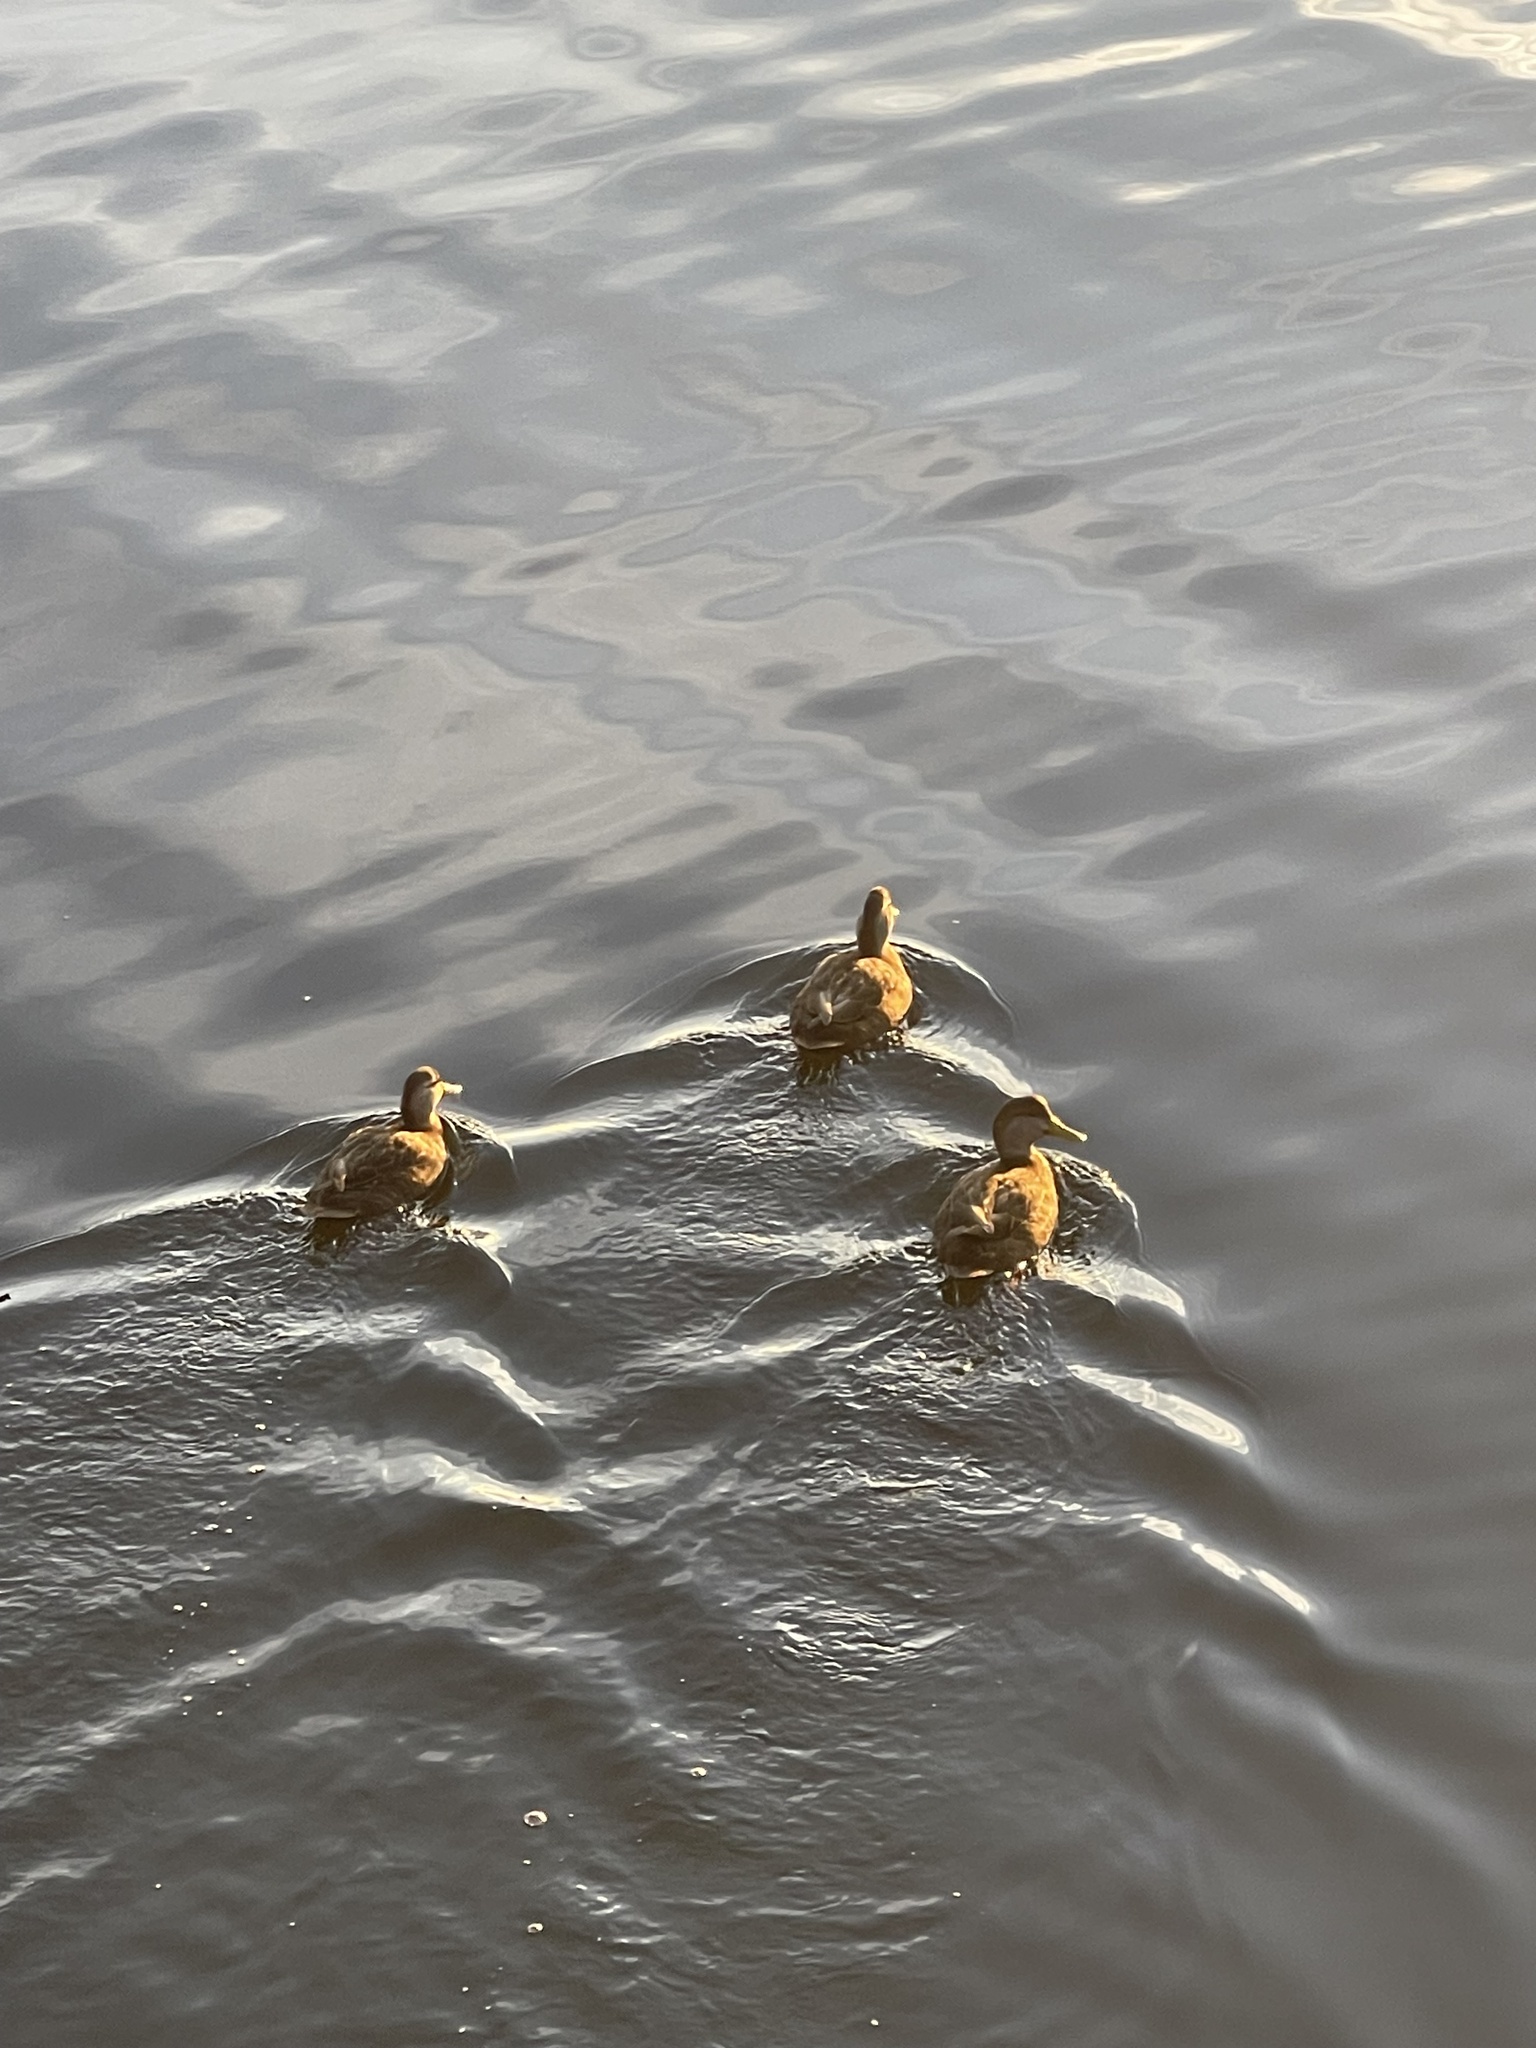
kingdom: Animalia
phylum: Chordata
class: Aves
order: Anseriformes
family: Anatidae
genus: Anas
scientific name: Anas rubripes
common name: American black duck
